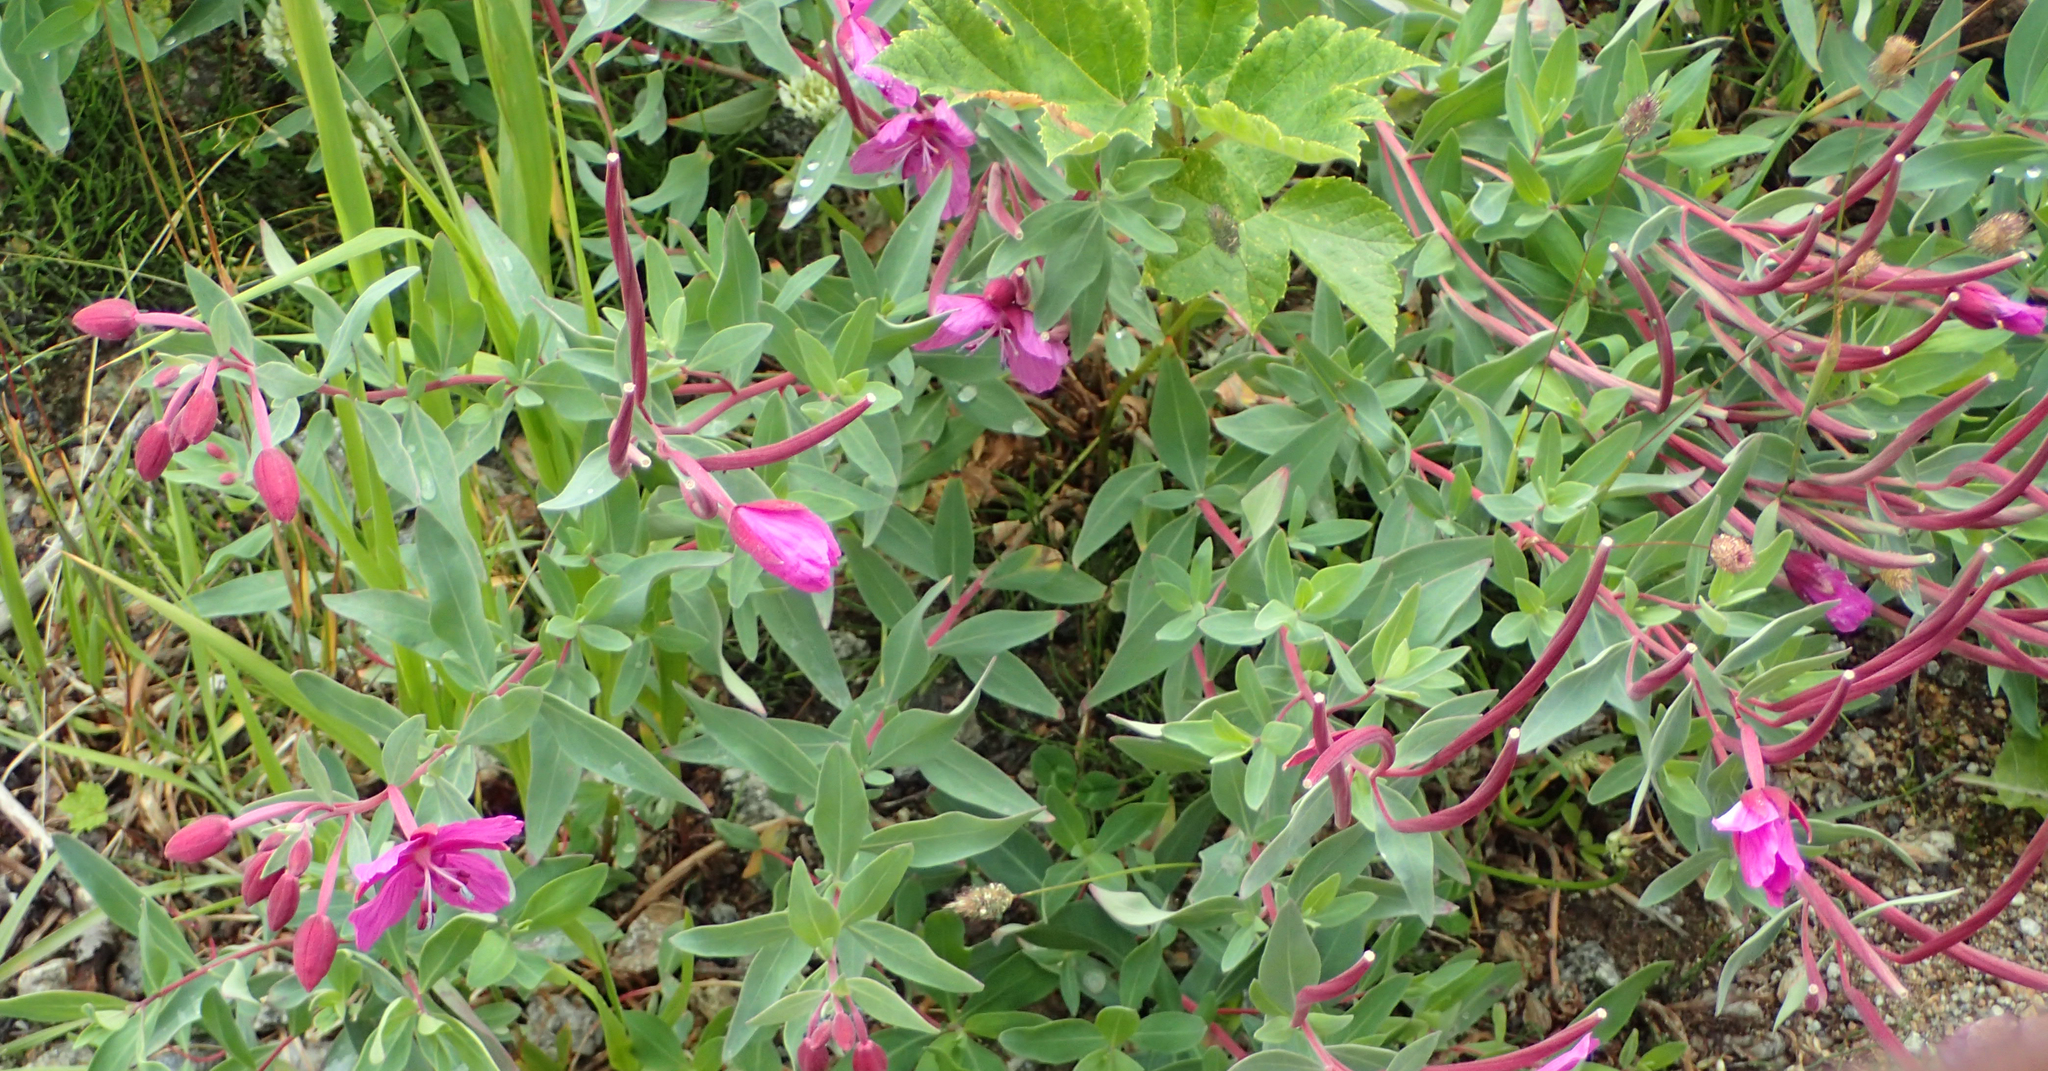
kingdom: Plantae
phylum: Tracheophyta
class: Magnoliopsida
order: Myrtales
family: Onagraceae
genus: Chamaenerion
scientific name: Chamaenerion latifolium
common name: Dwarf fireweed
